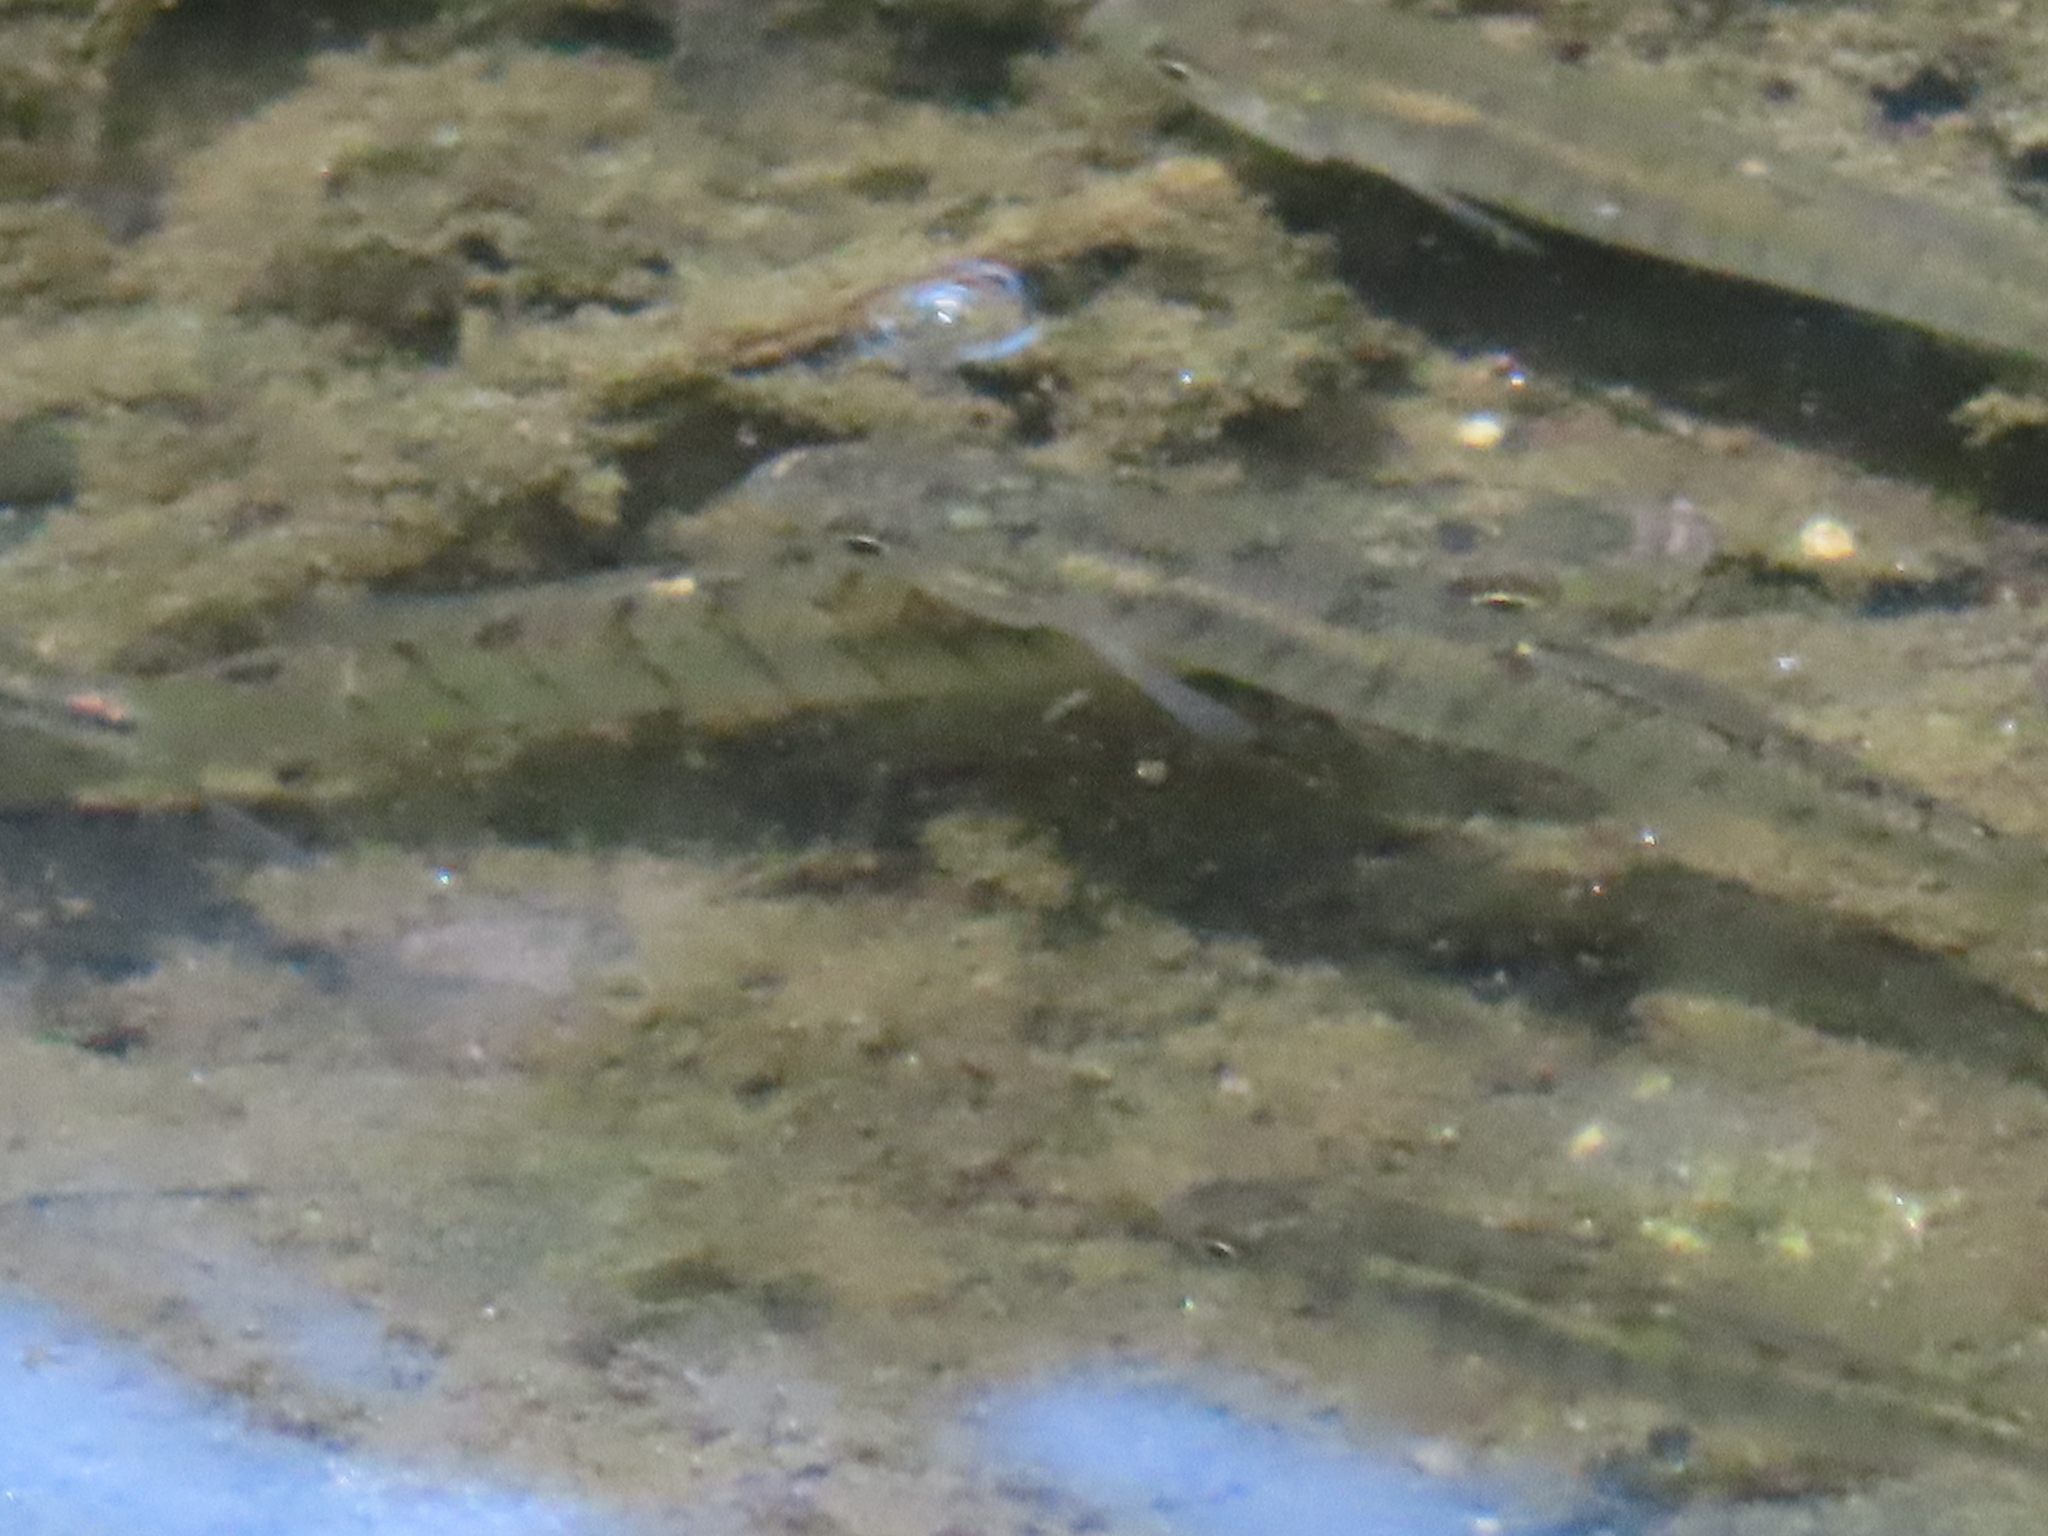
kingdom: Animalia
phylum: Chordata
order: Cyprinodontiformes
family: Fundulidae
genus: Fundulus
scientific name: Fundulus diaphanus
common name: Banded killifish
